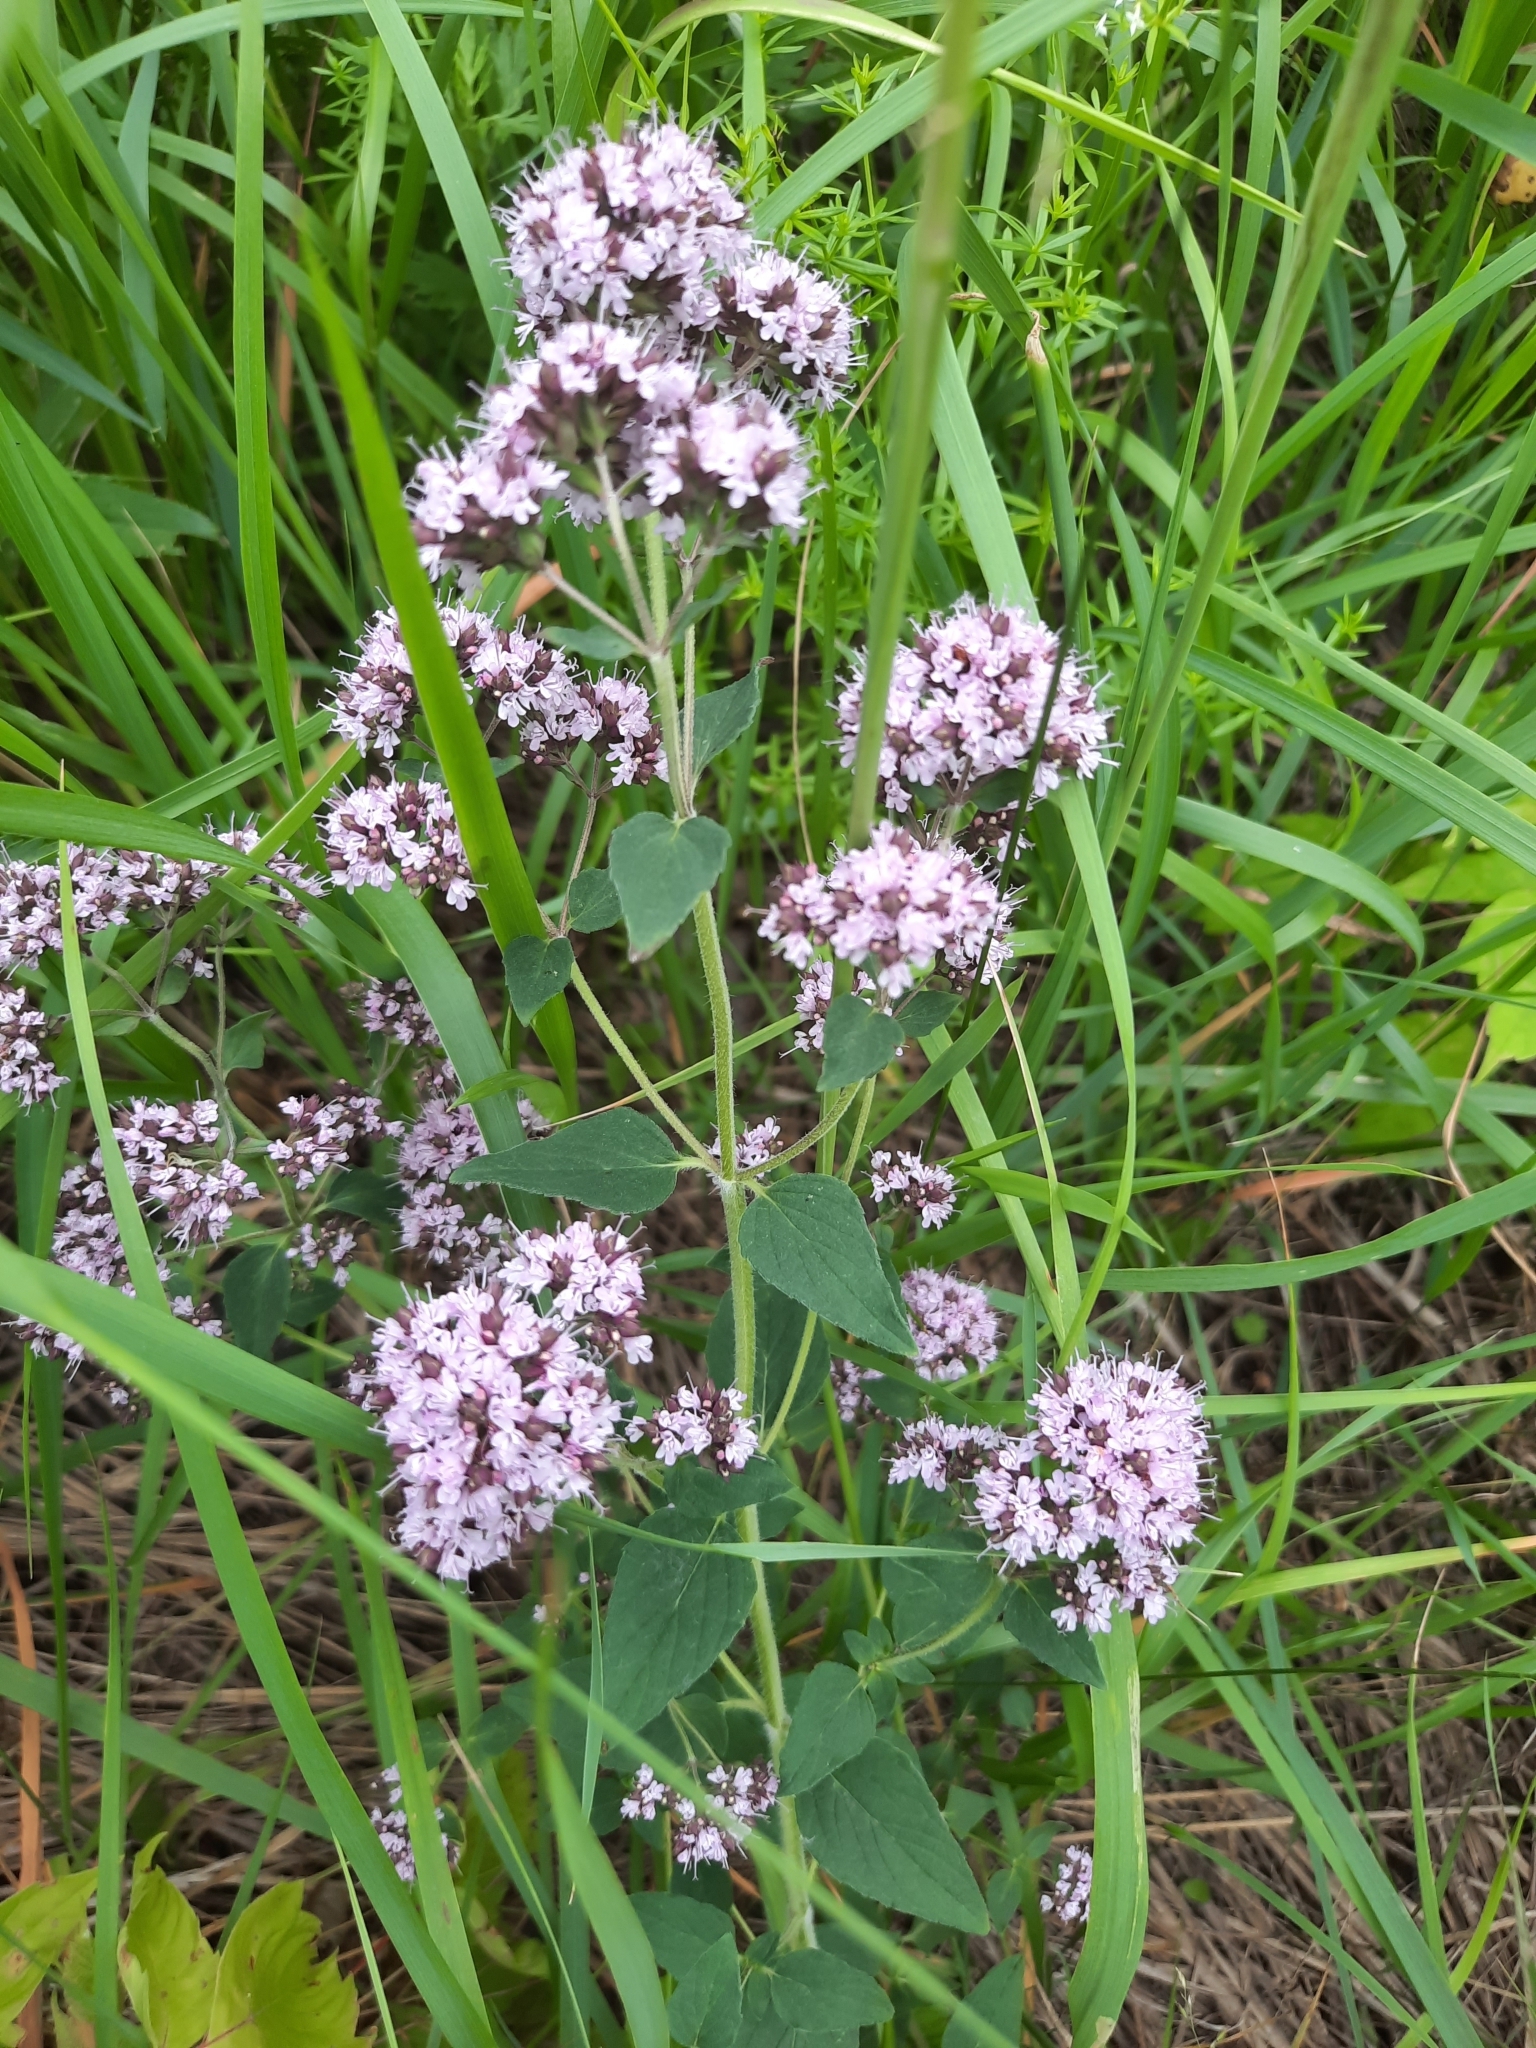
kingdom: Plantae
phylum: Tracheophyta
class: Magnoliopsida
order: Lamiales
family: Lamiaceae
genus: Origanum
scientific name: Origanum vulgare
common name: Wild marjoram
